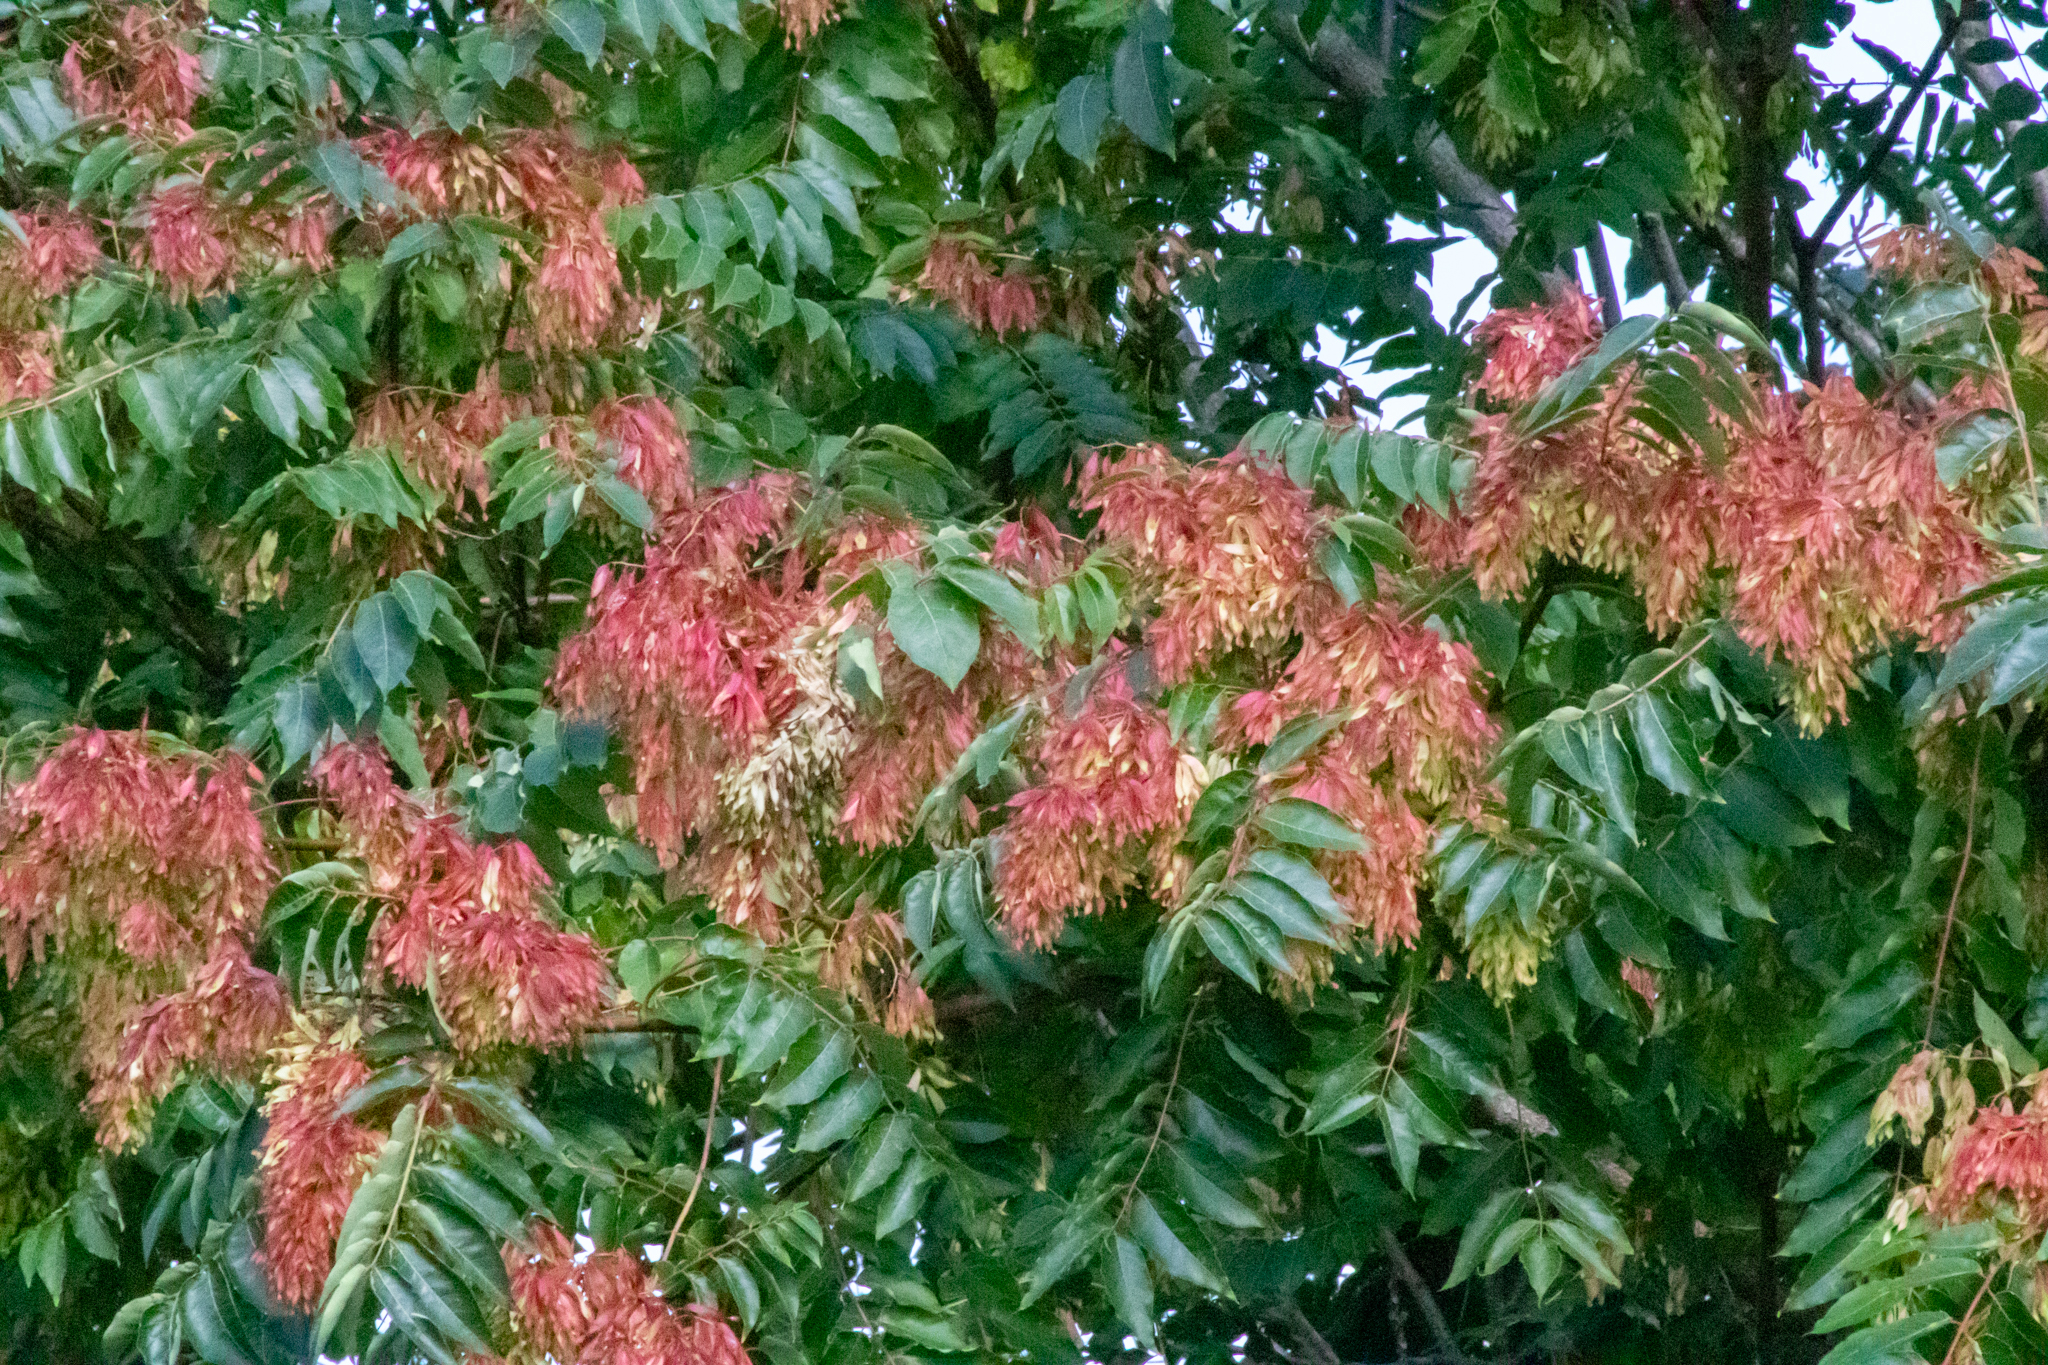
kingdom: Plantae
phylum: Tracheophyta
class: Magnoliopsida
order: Sapindales
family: Simaroubaceae
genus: Ailanthus
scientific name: Ailanthus altissima
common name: Tree-of-heaven
